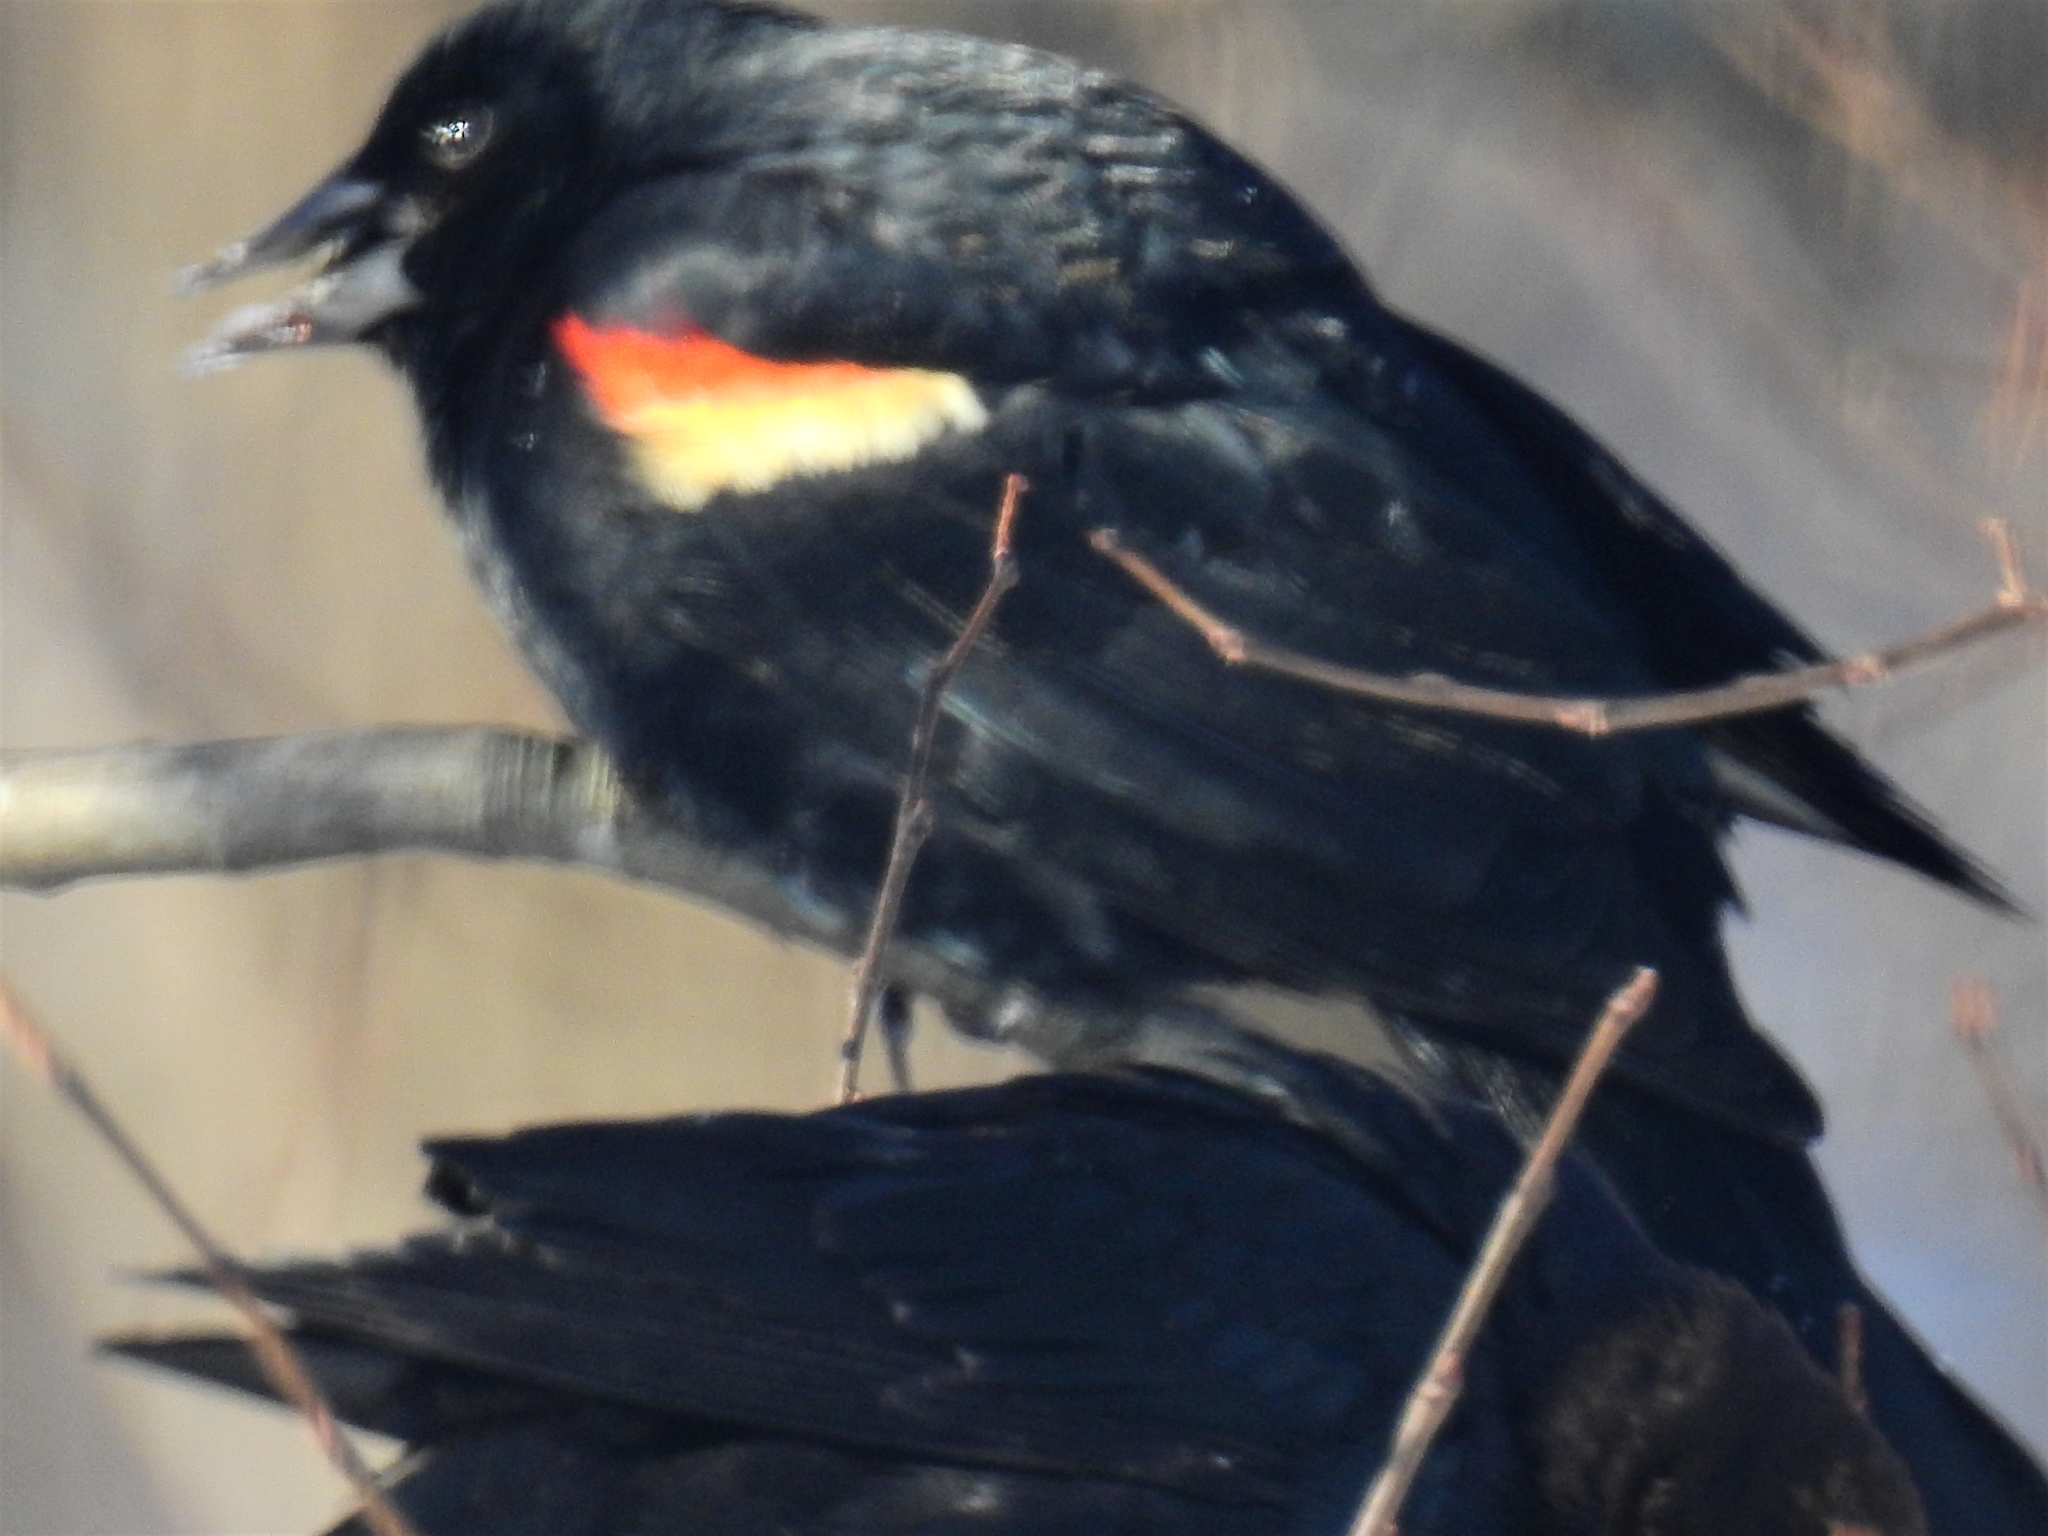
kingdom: Animalia
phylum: Chordata
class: Aves
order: Passeriformes
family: Icteridae
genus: Agelaius
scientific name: Agelaius phoeniceus
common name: Red-winged blackbird
